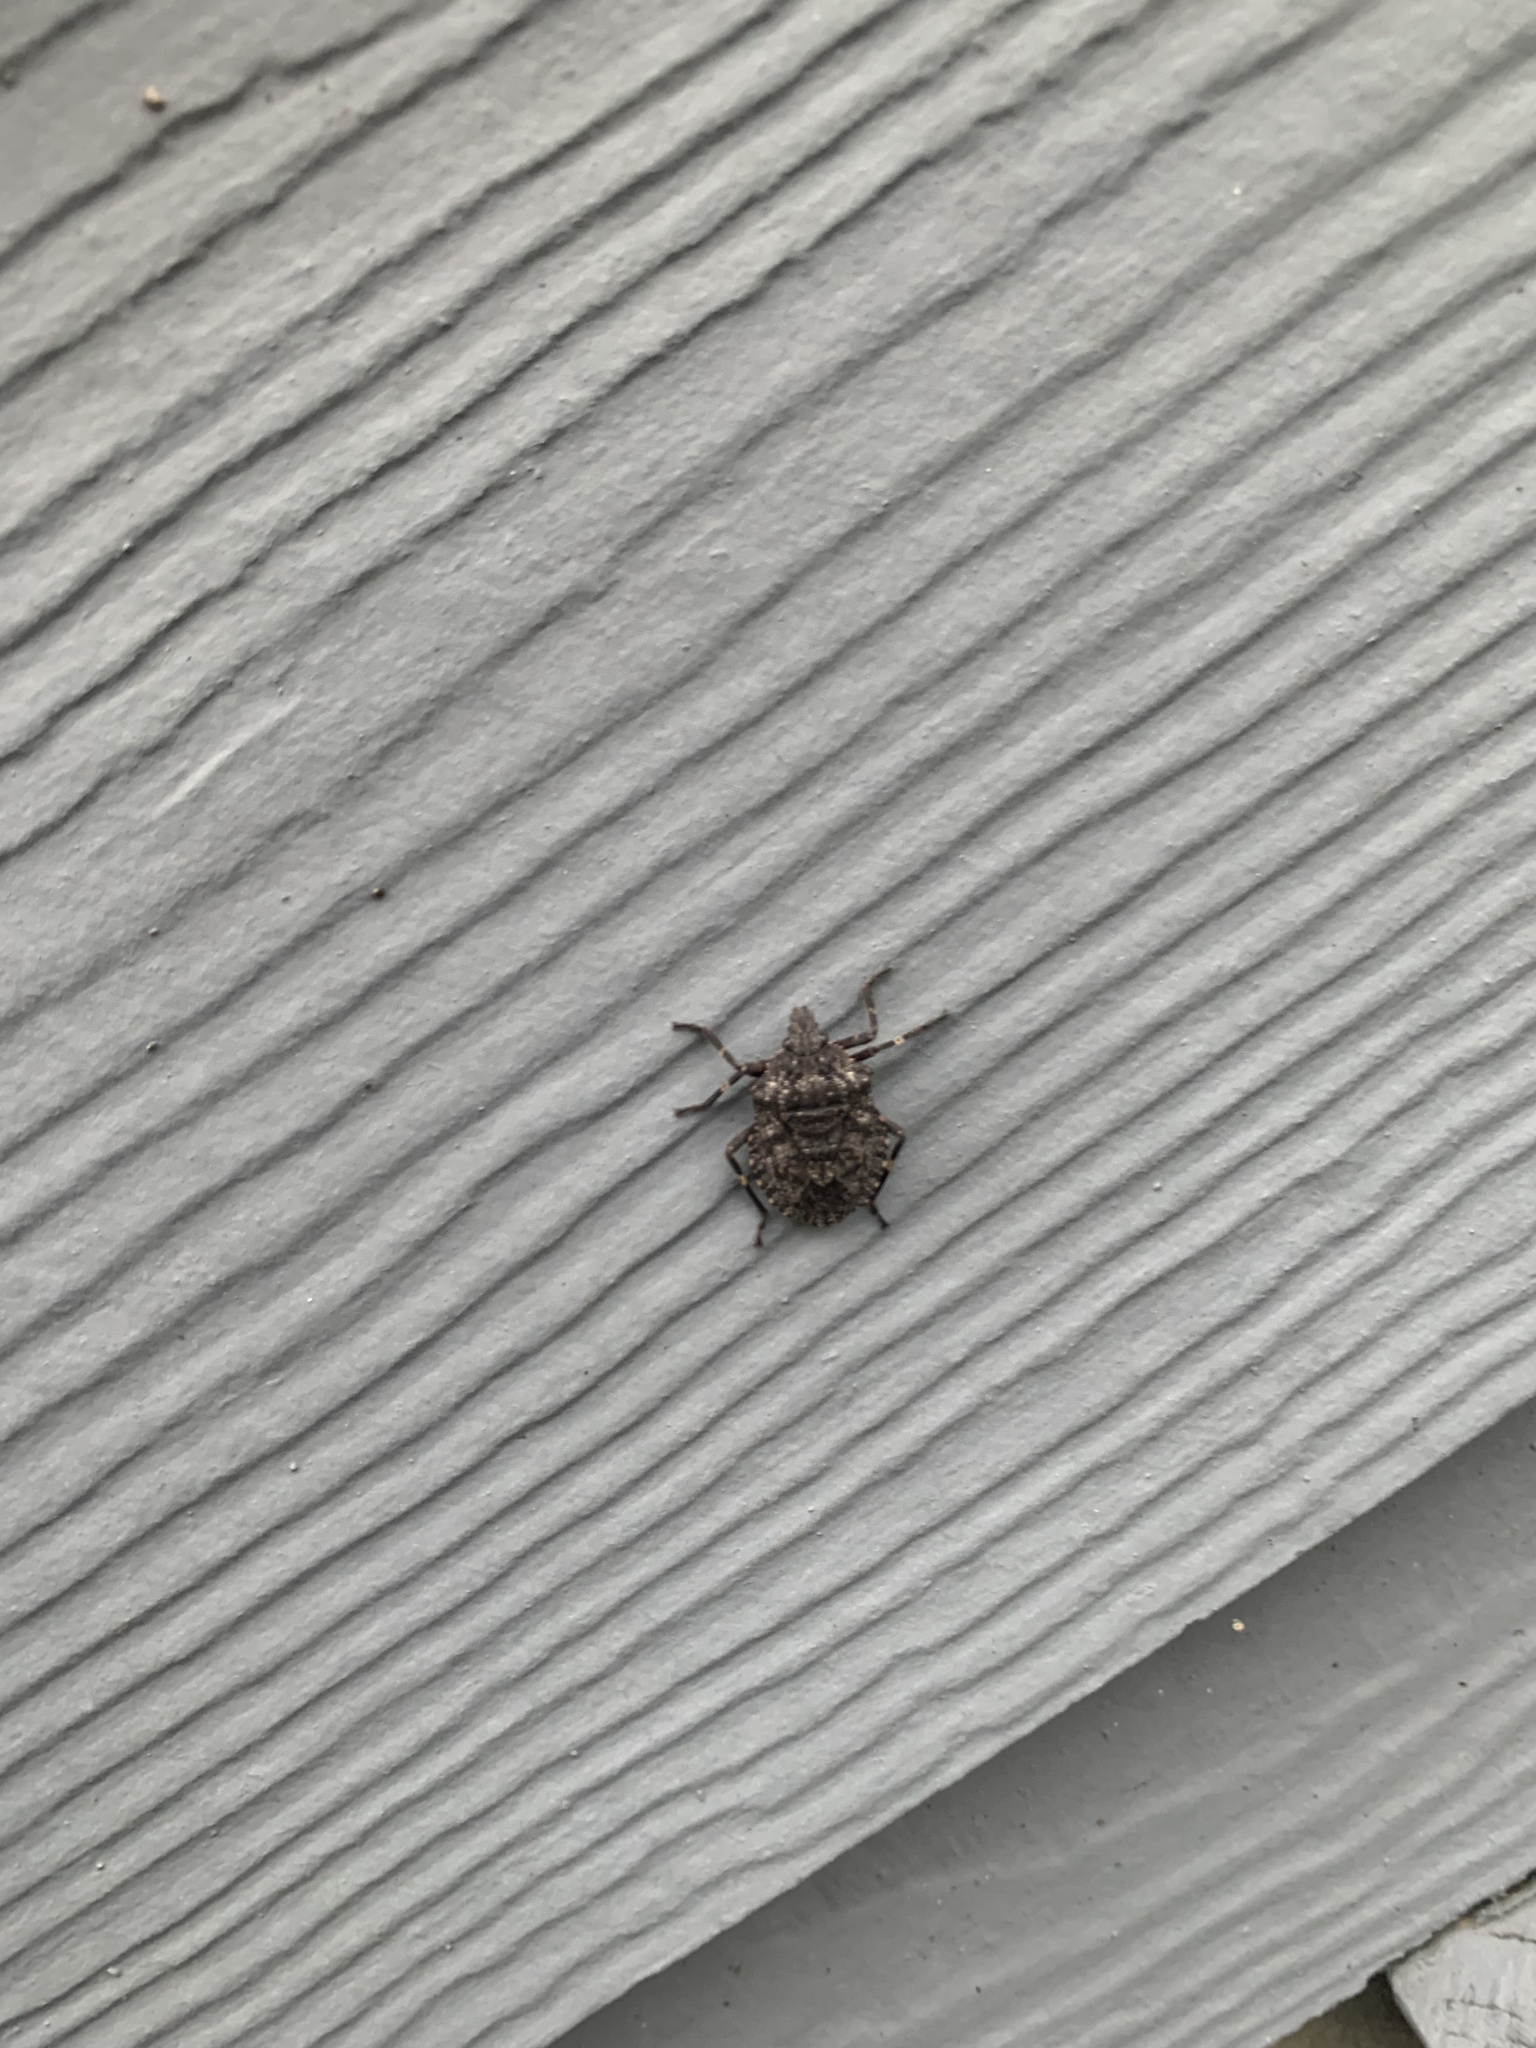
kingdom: Animalia
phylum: Arthropoda
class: Insecta
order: Hemiptera
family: Pentatomidae
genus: Brochymena
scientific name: Brochymena affinis
